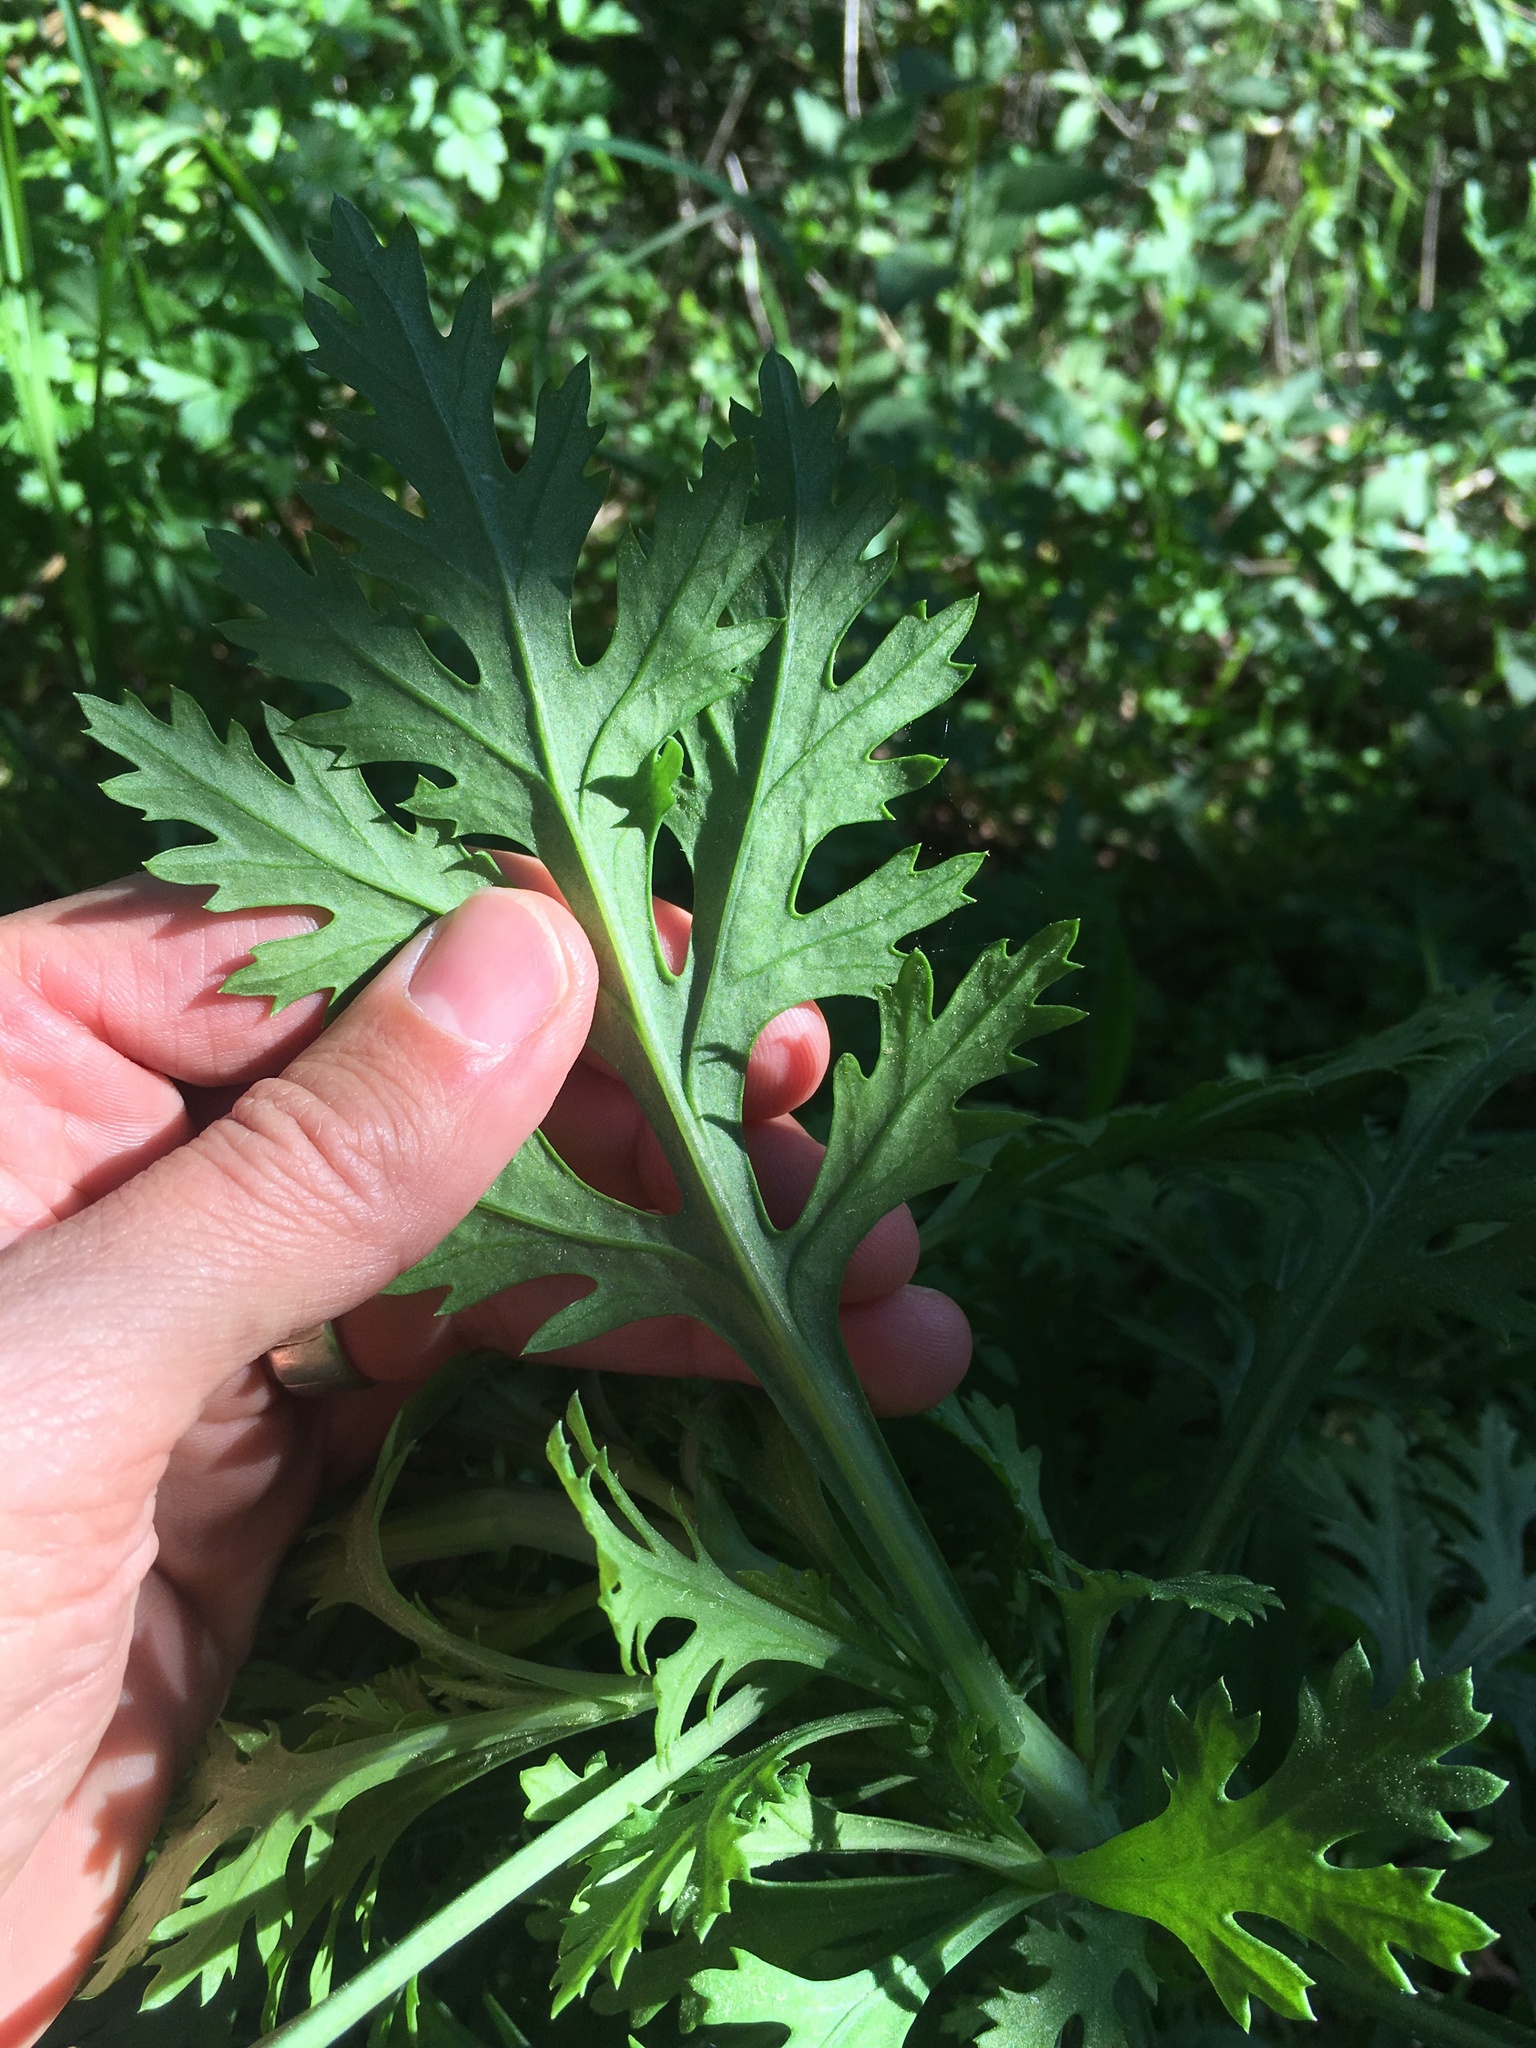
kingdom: Plantae
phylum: Tracheophyta
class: Magnoliopsida
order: Asterales
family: Asteraceae
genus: Argyranthemum
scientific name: Argyranthemum frutescens
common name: Paris daisy
